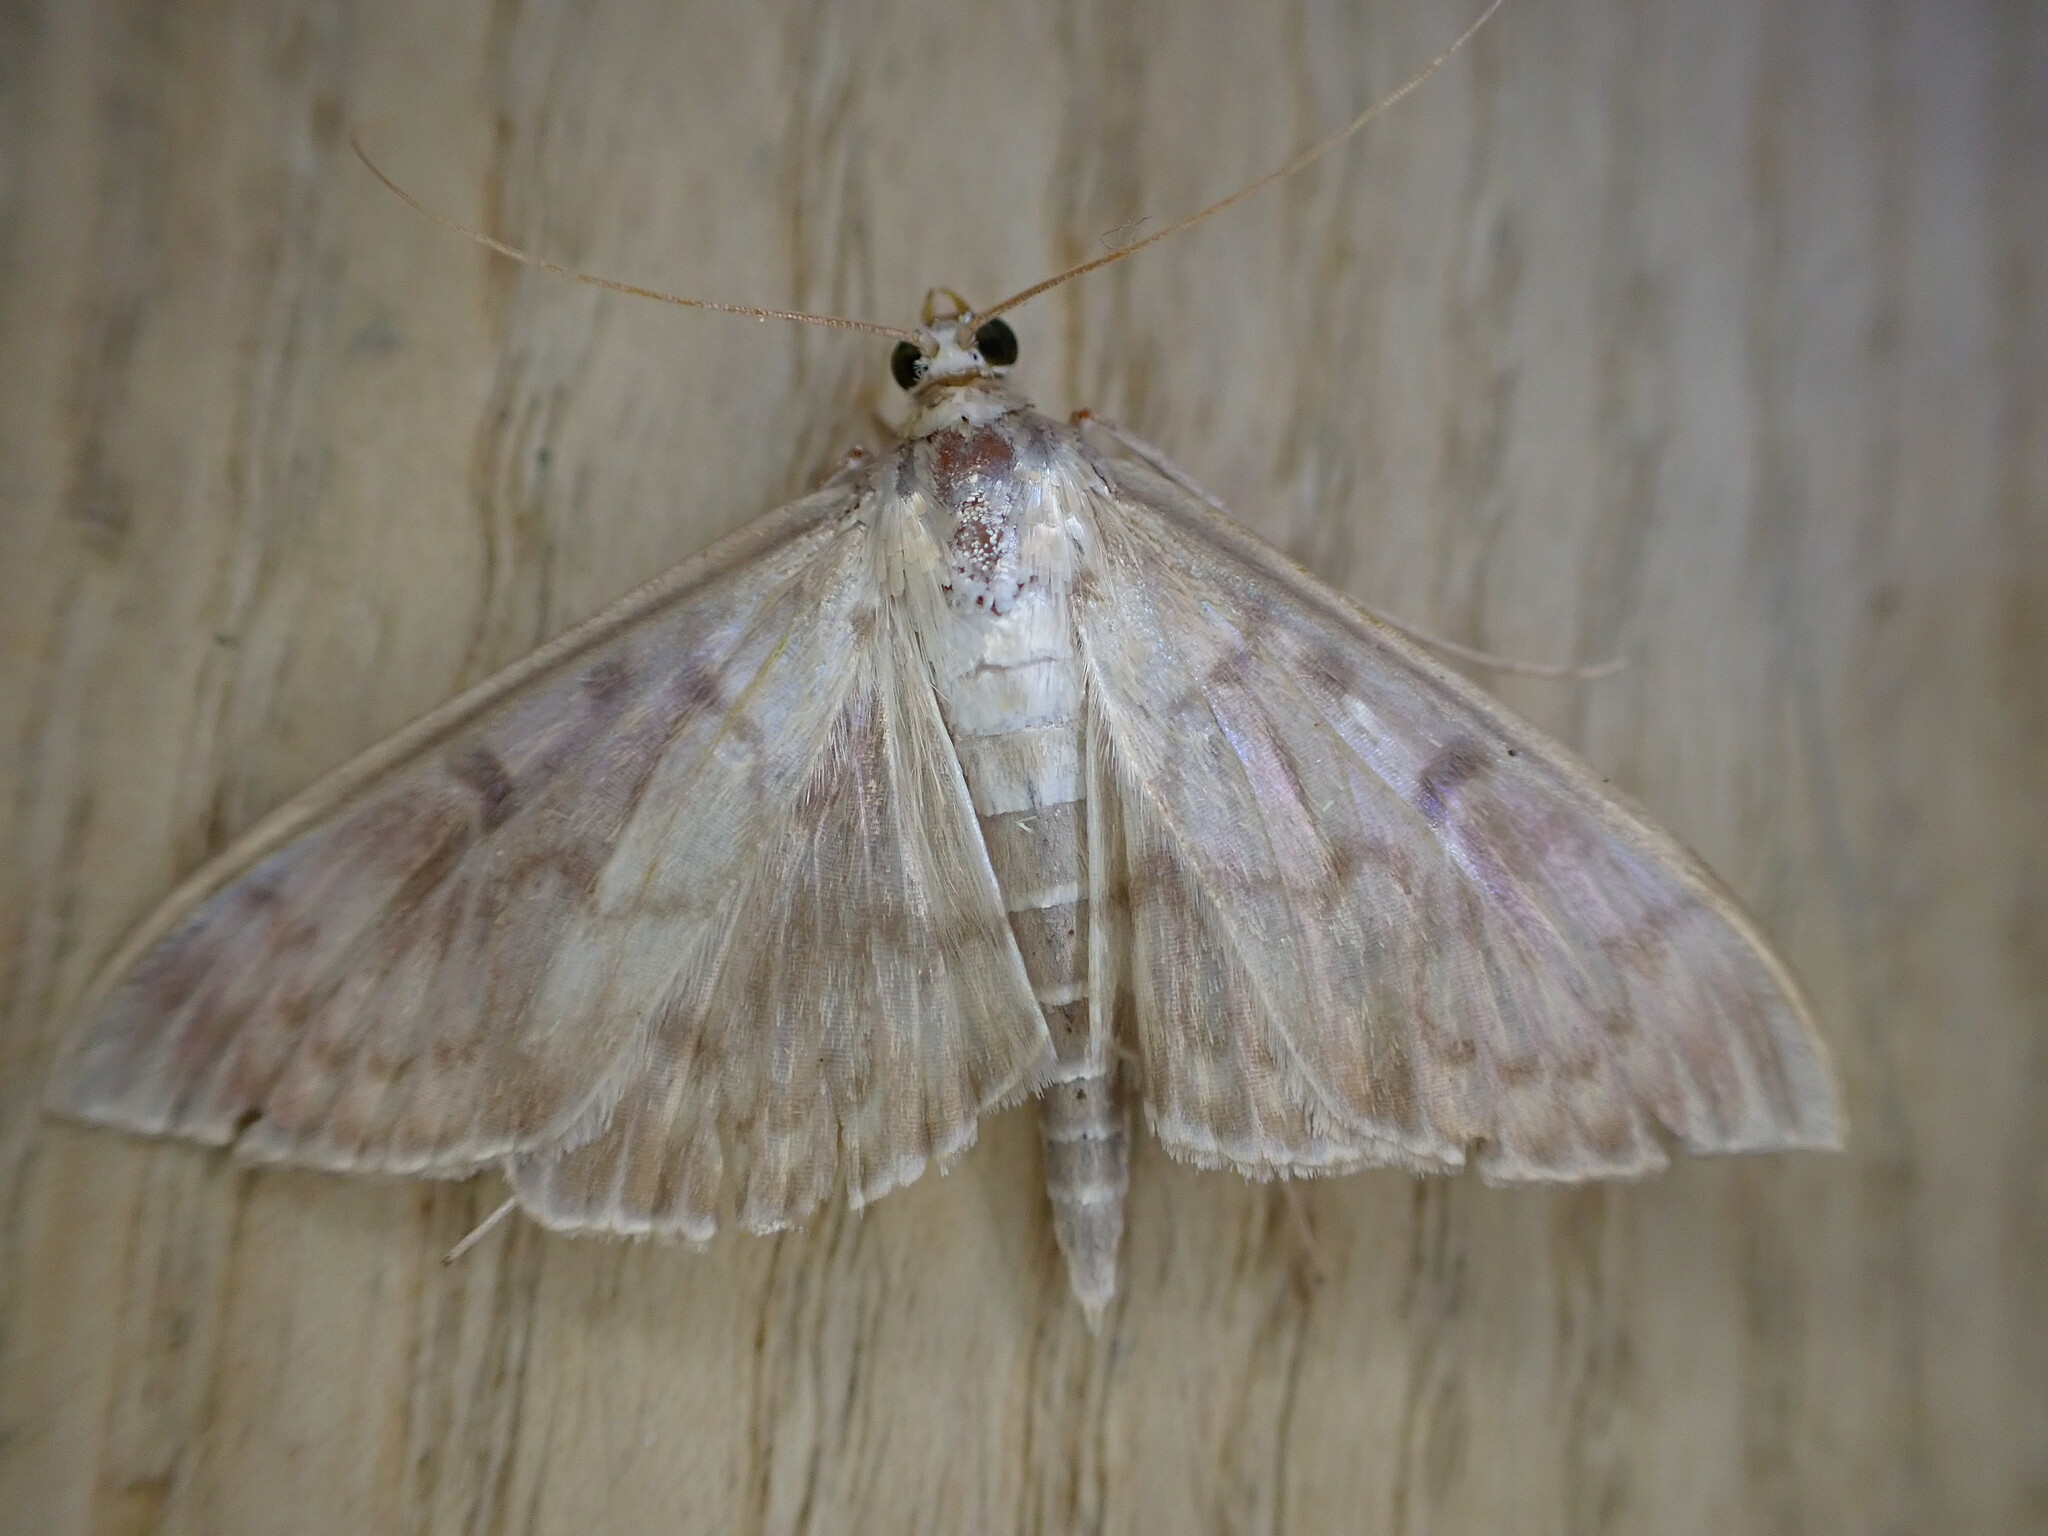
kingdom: Animalia
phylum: Arthropoda
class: Insecta
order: Lepidoptera
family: Crambidae
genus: Patania
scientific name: Patania ruralis
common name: Mother of pearl
